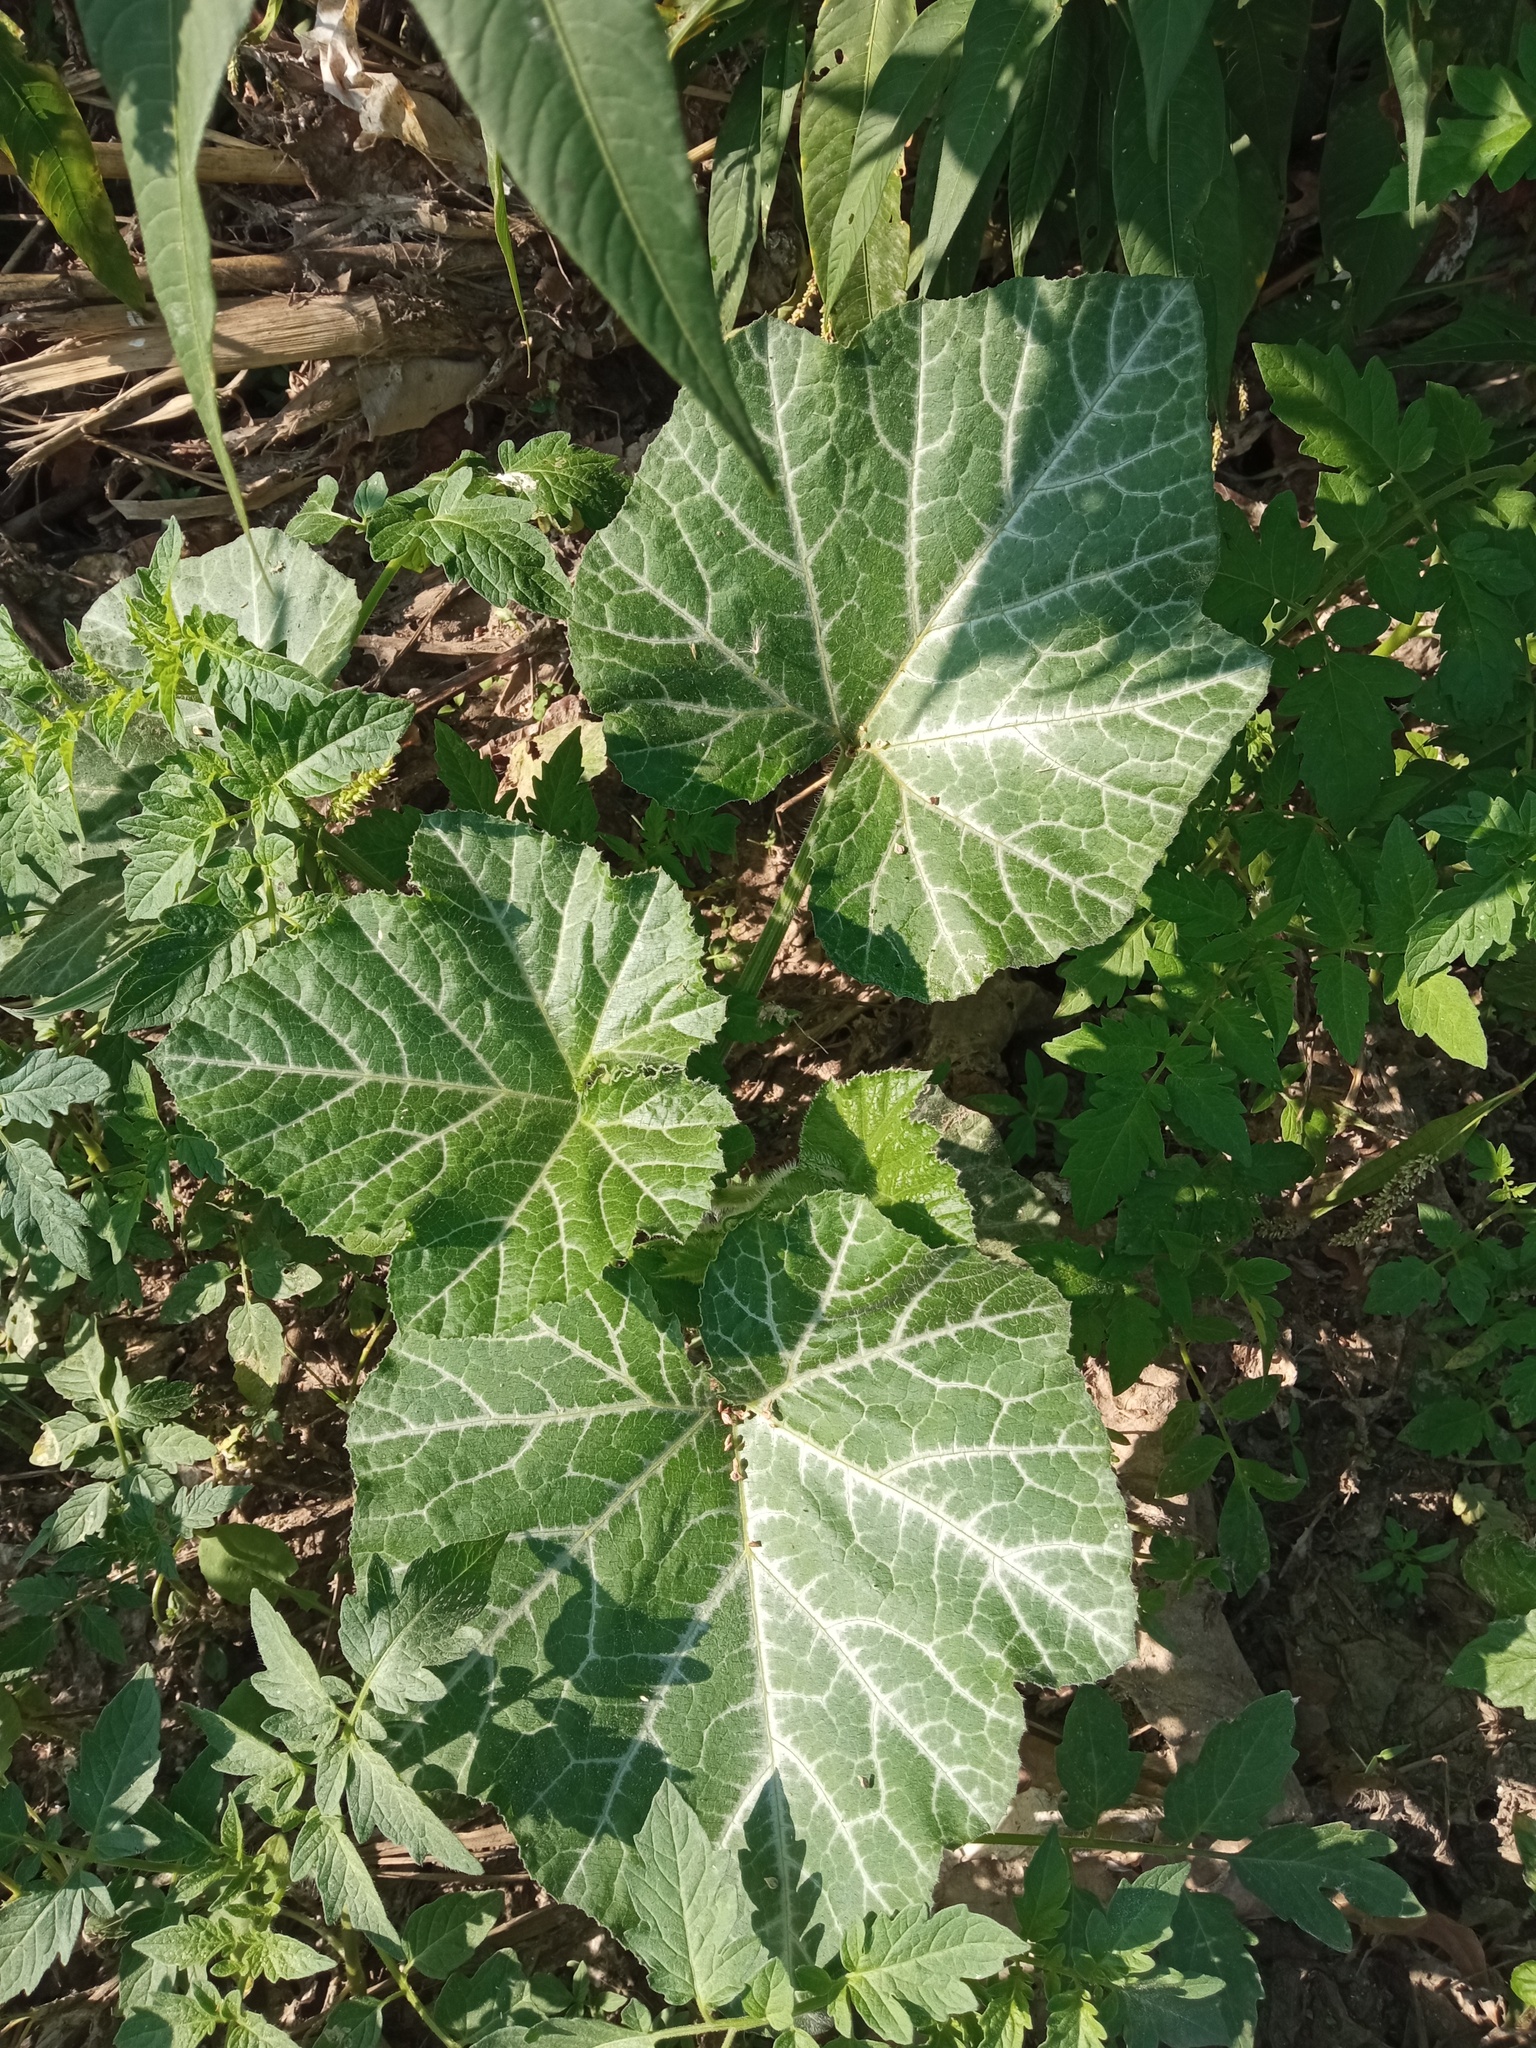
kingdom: Plantae
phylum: Tracheophyta
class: Magnoliopsida
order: Cucurbitales
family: Cucurbitaceae
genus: Cucurbita
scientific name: Cucurbita moschata
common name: Squash / pumpkin
